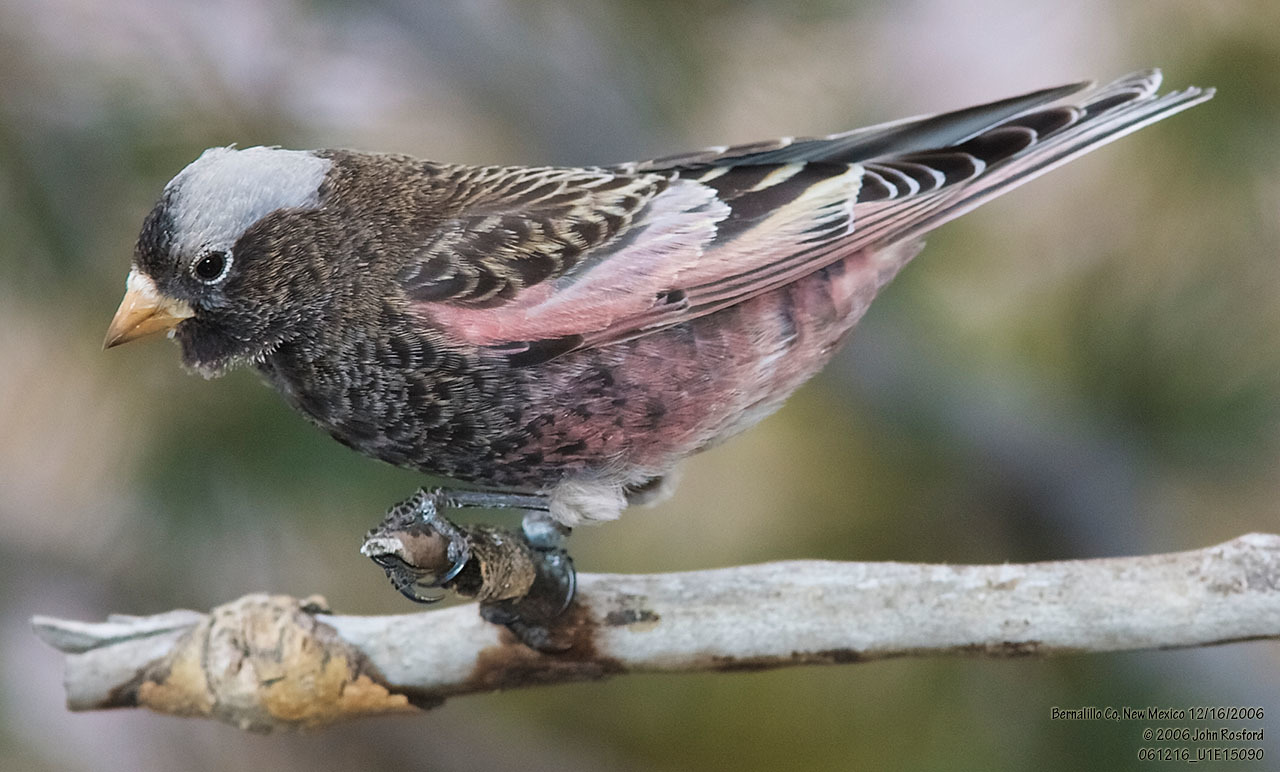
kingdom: Animalia
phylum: Chordata
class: Aves
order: Passeriformes
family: Fringillidae
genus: Leucosticte
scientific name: Leucosticte atrata
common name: Black rosy-finch
